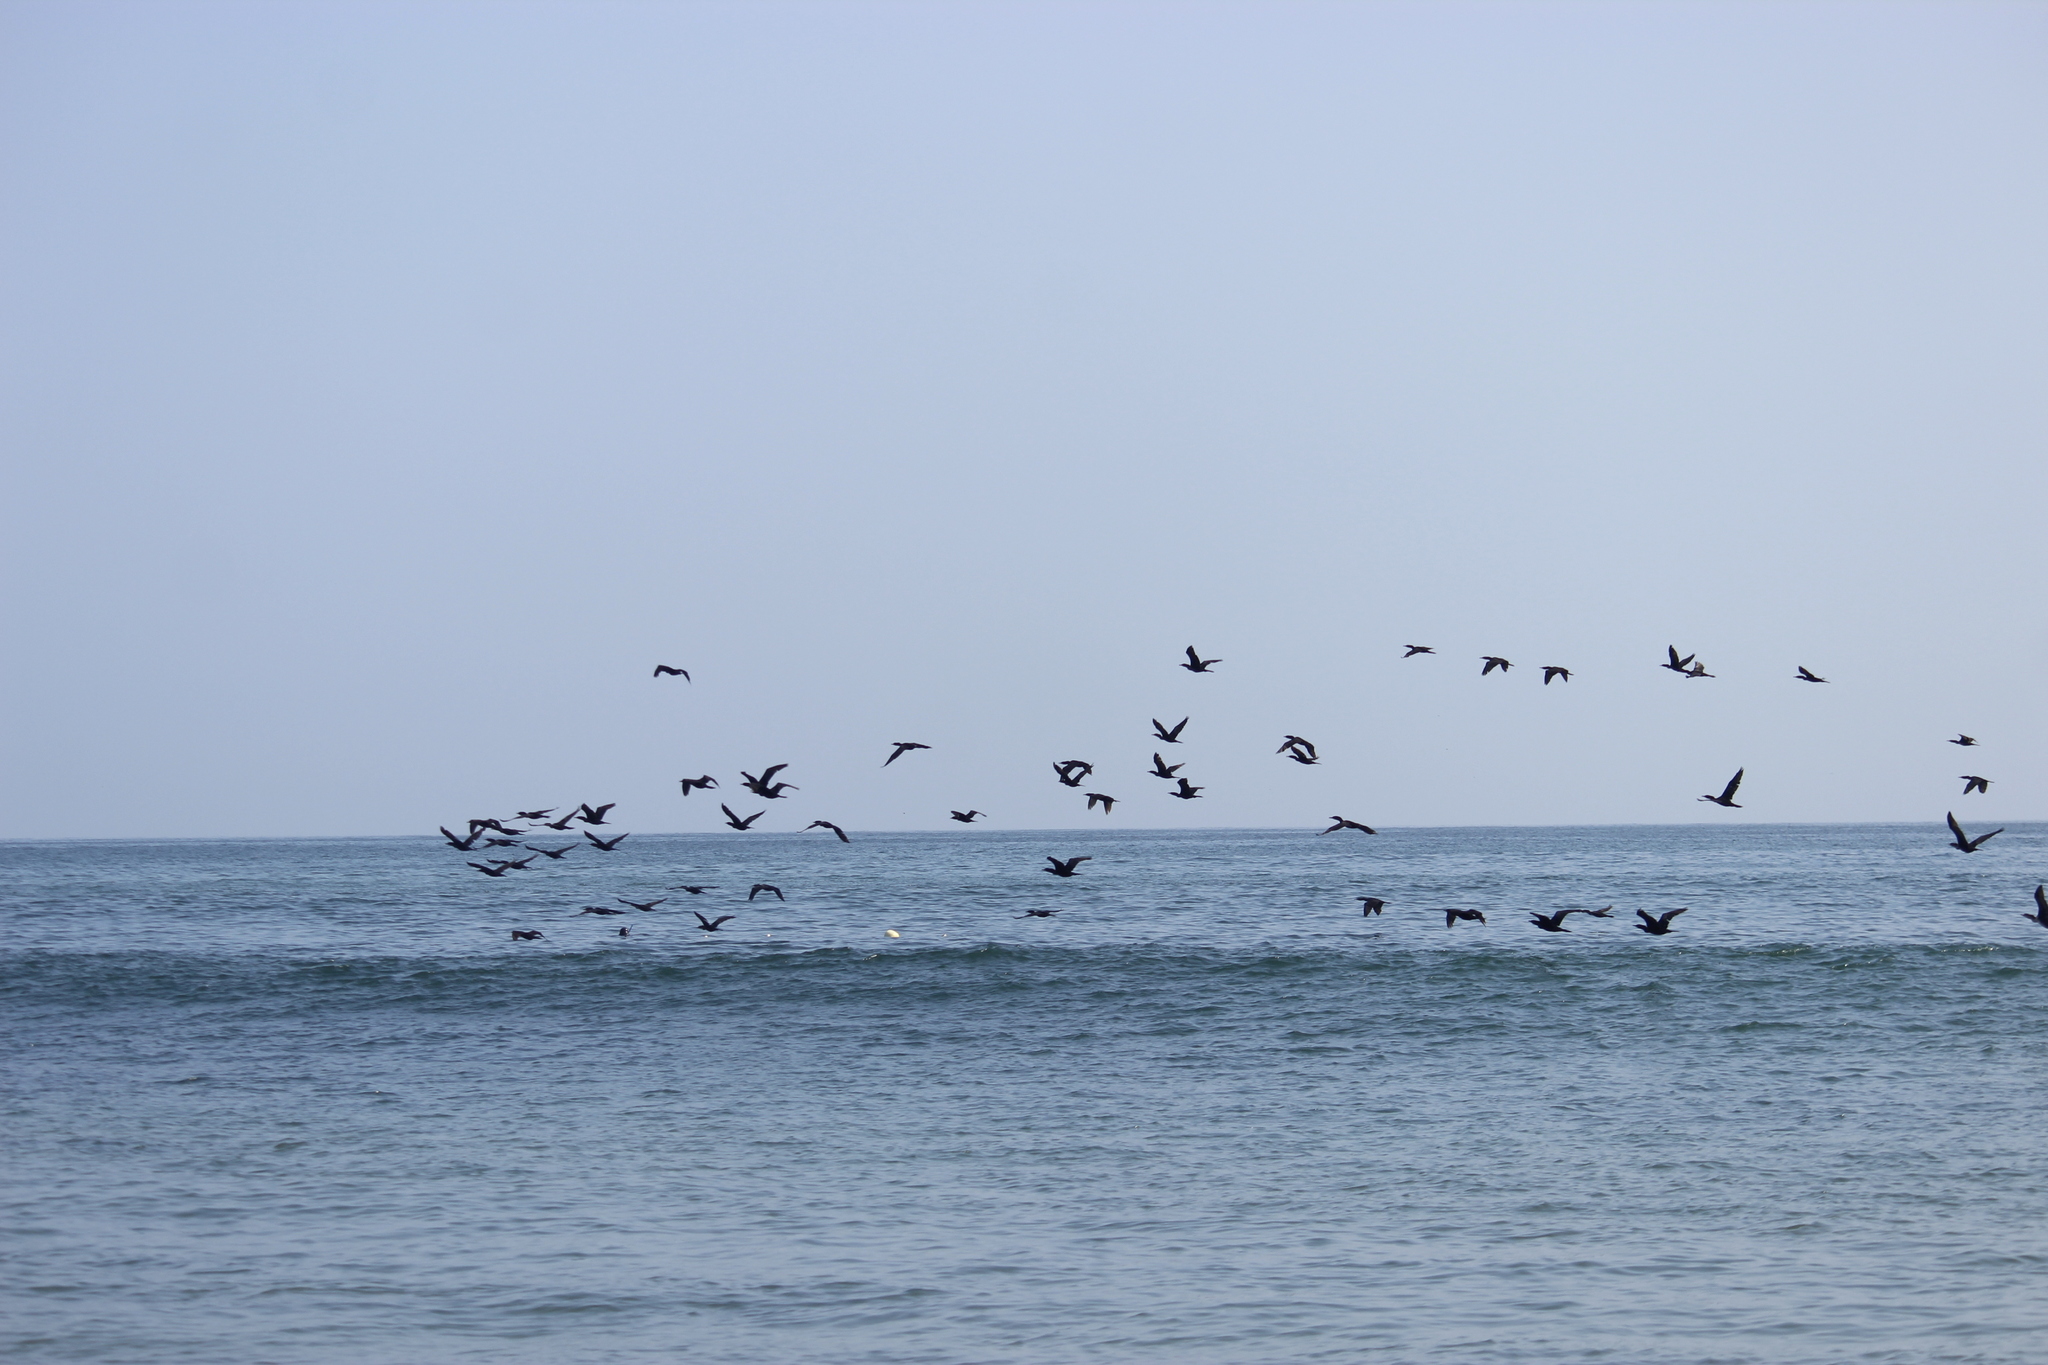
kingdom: Animalia
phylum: Chordata
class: Aves
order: Suliformes
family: Phalacrocoracidae
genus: Phalacrocorax
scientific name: Phalacrocorax brasilianus
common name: Neotropic cormorant
